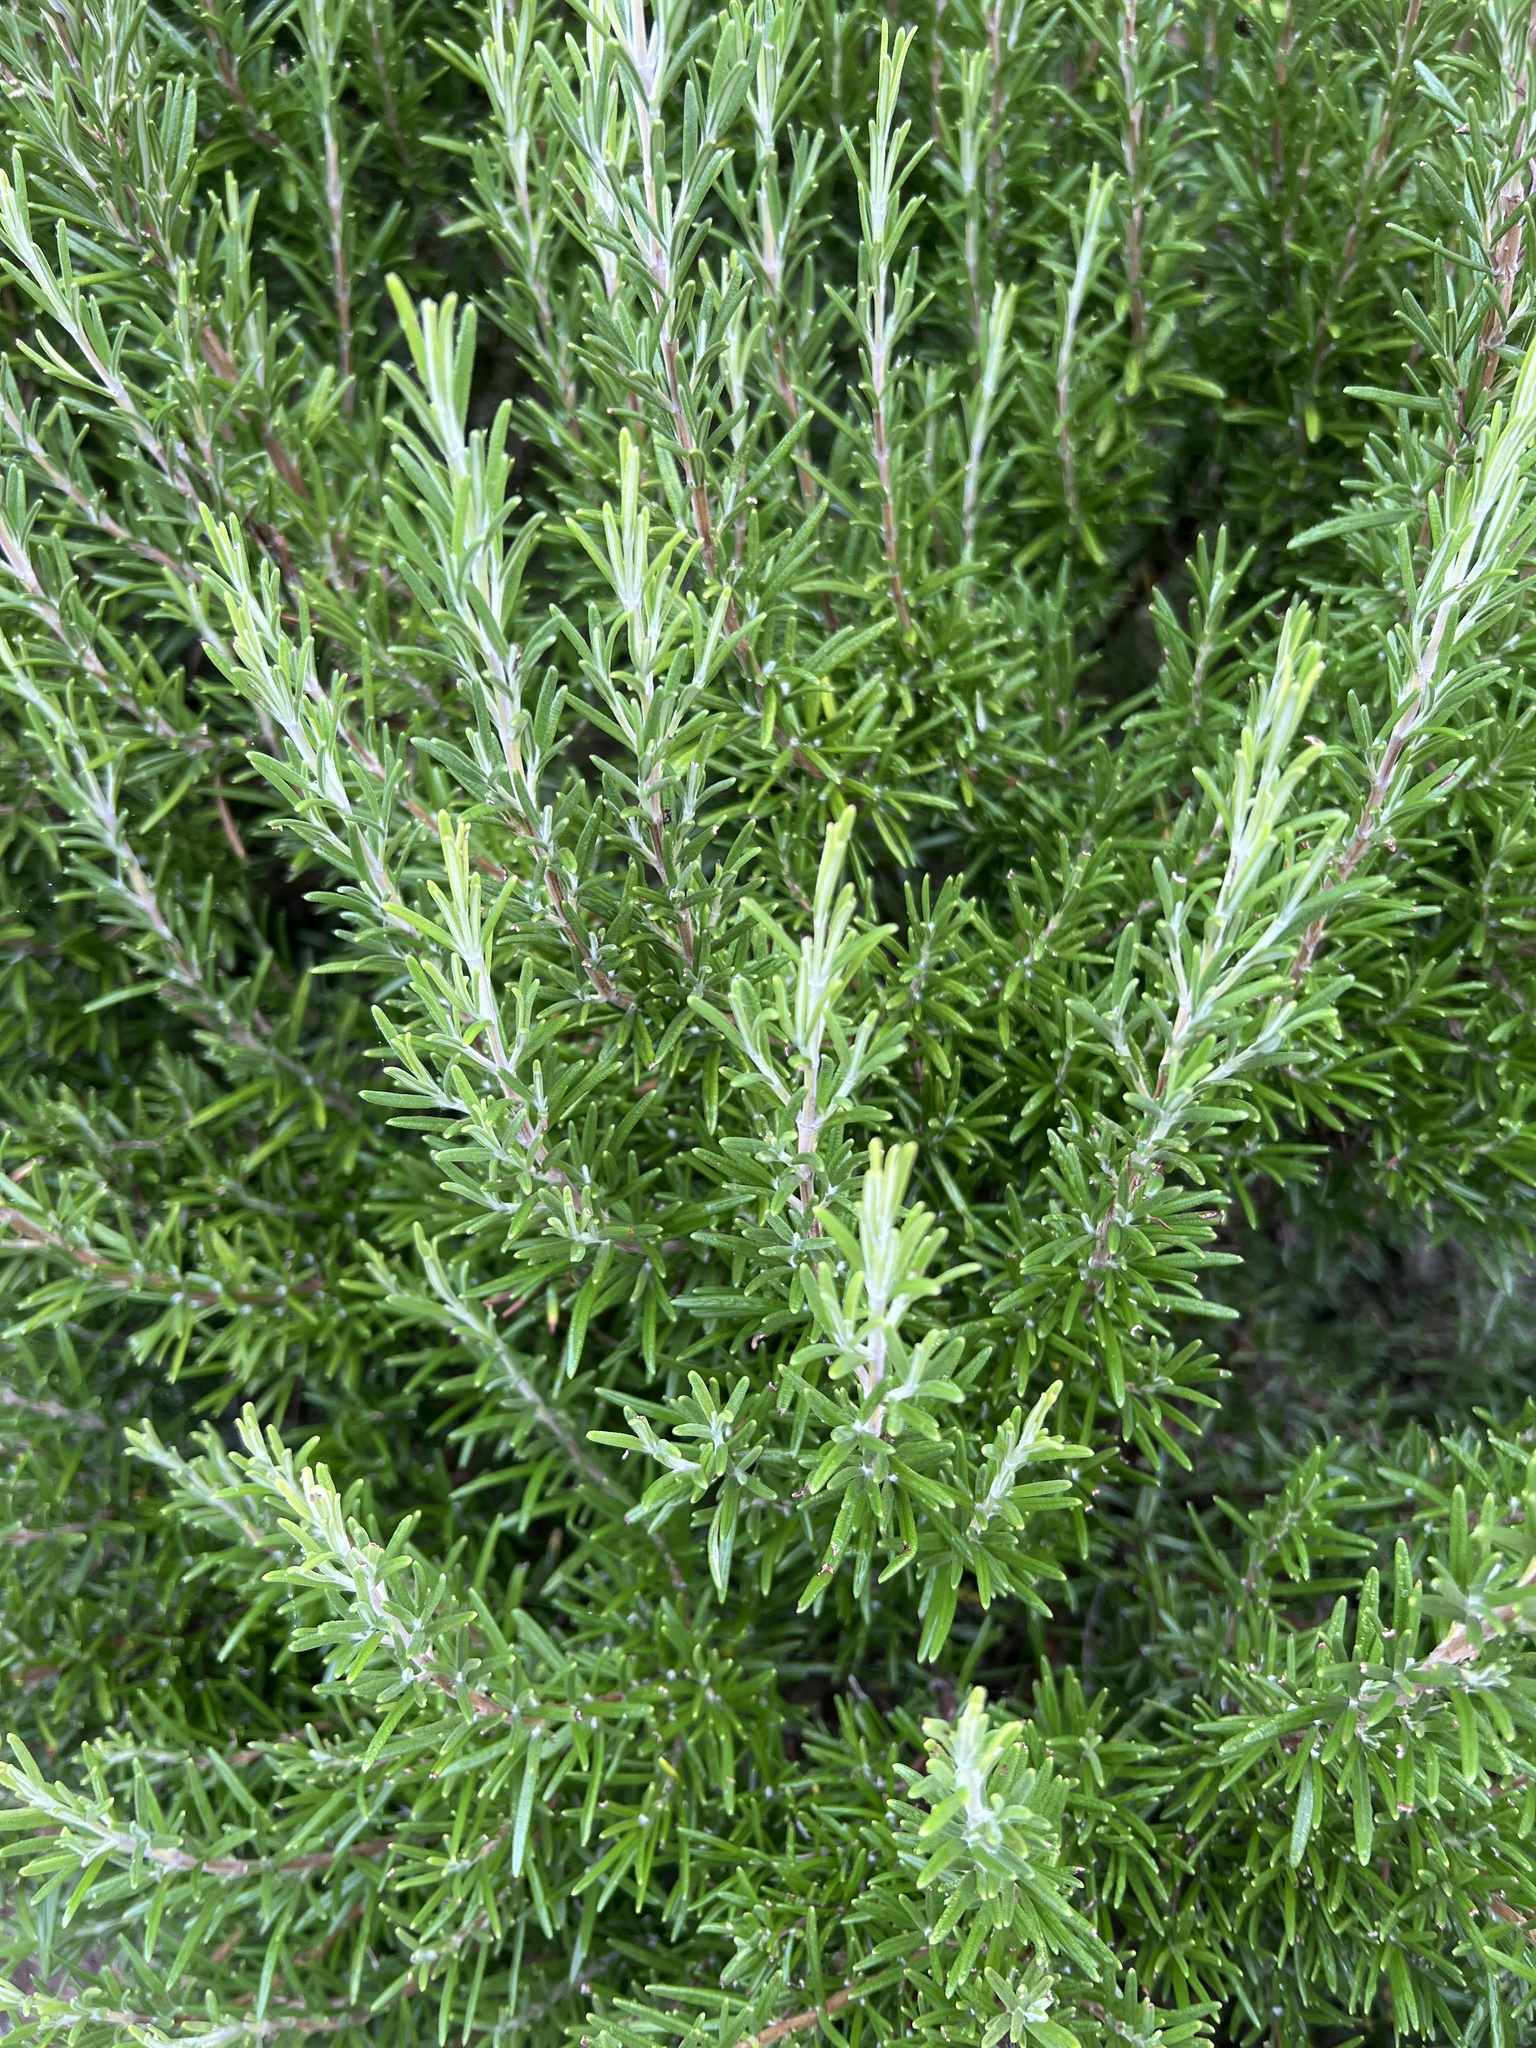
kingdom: Plantae
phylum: Tracheophyta
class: Magnoliopsida
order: Lamiales
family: Lamiaceae
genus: Salvia
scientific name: Salvia rosmarinus
